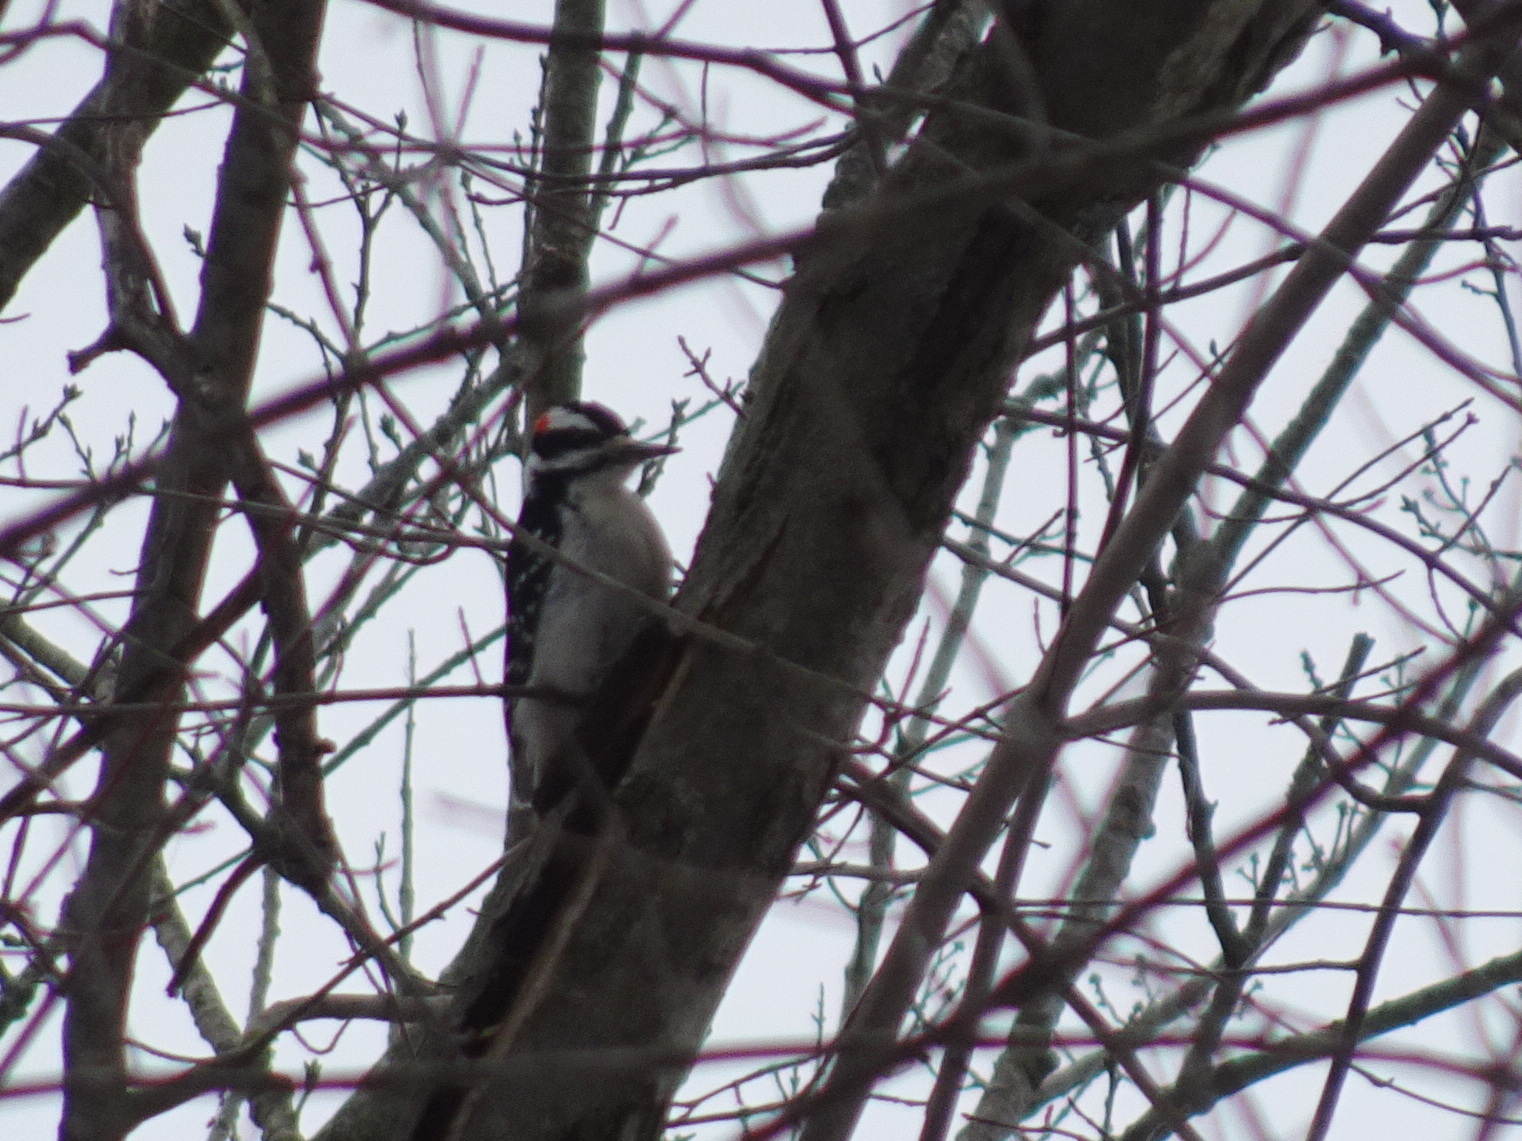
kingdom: Animalia
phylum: Chordata
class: Aves
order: Piciformes
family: Picidae
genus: Leuconotopicus
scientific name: Leuconotopicus villosus
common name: Hairy woodpecker
